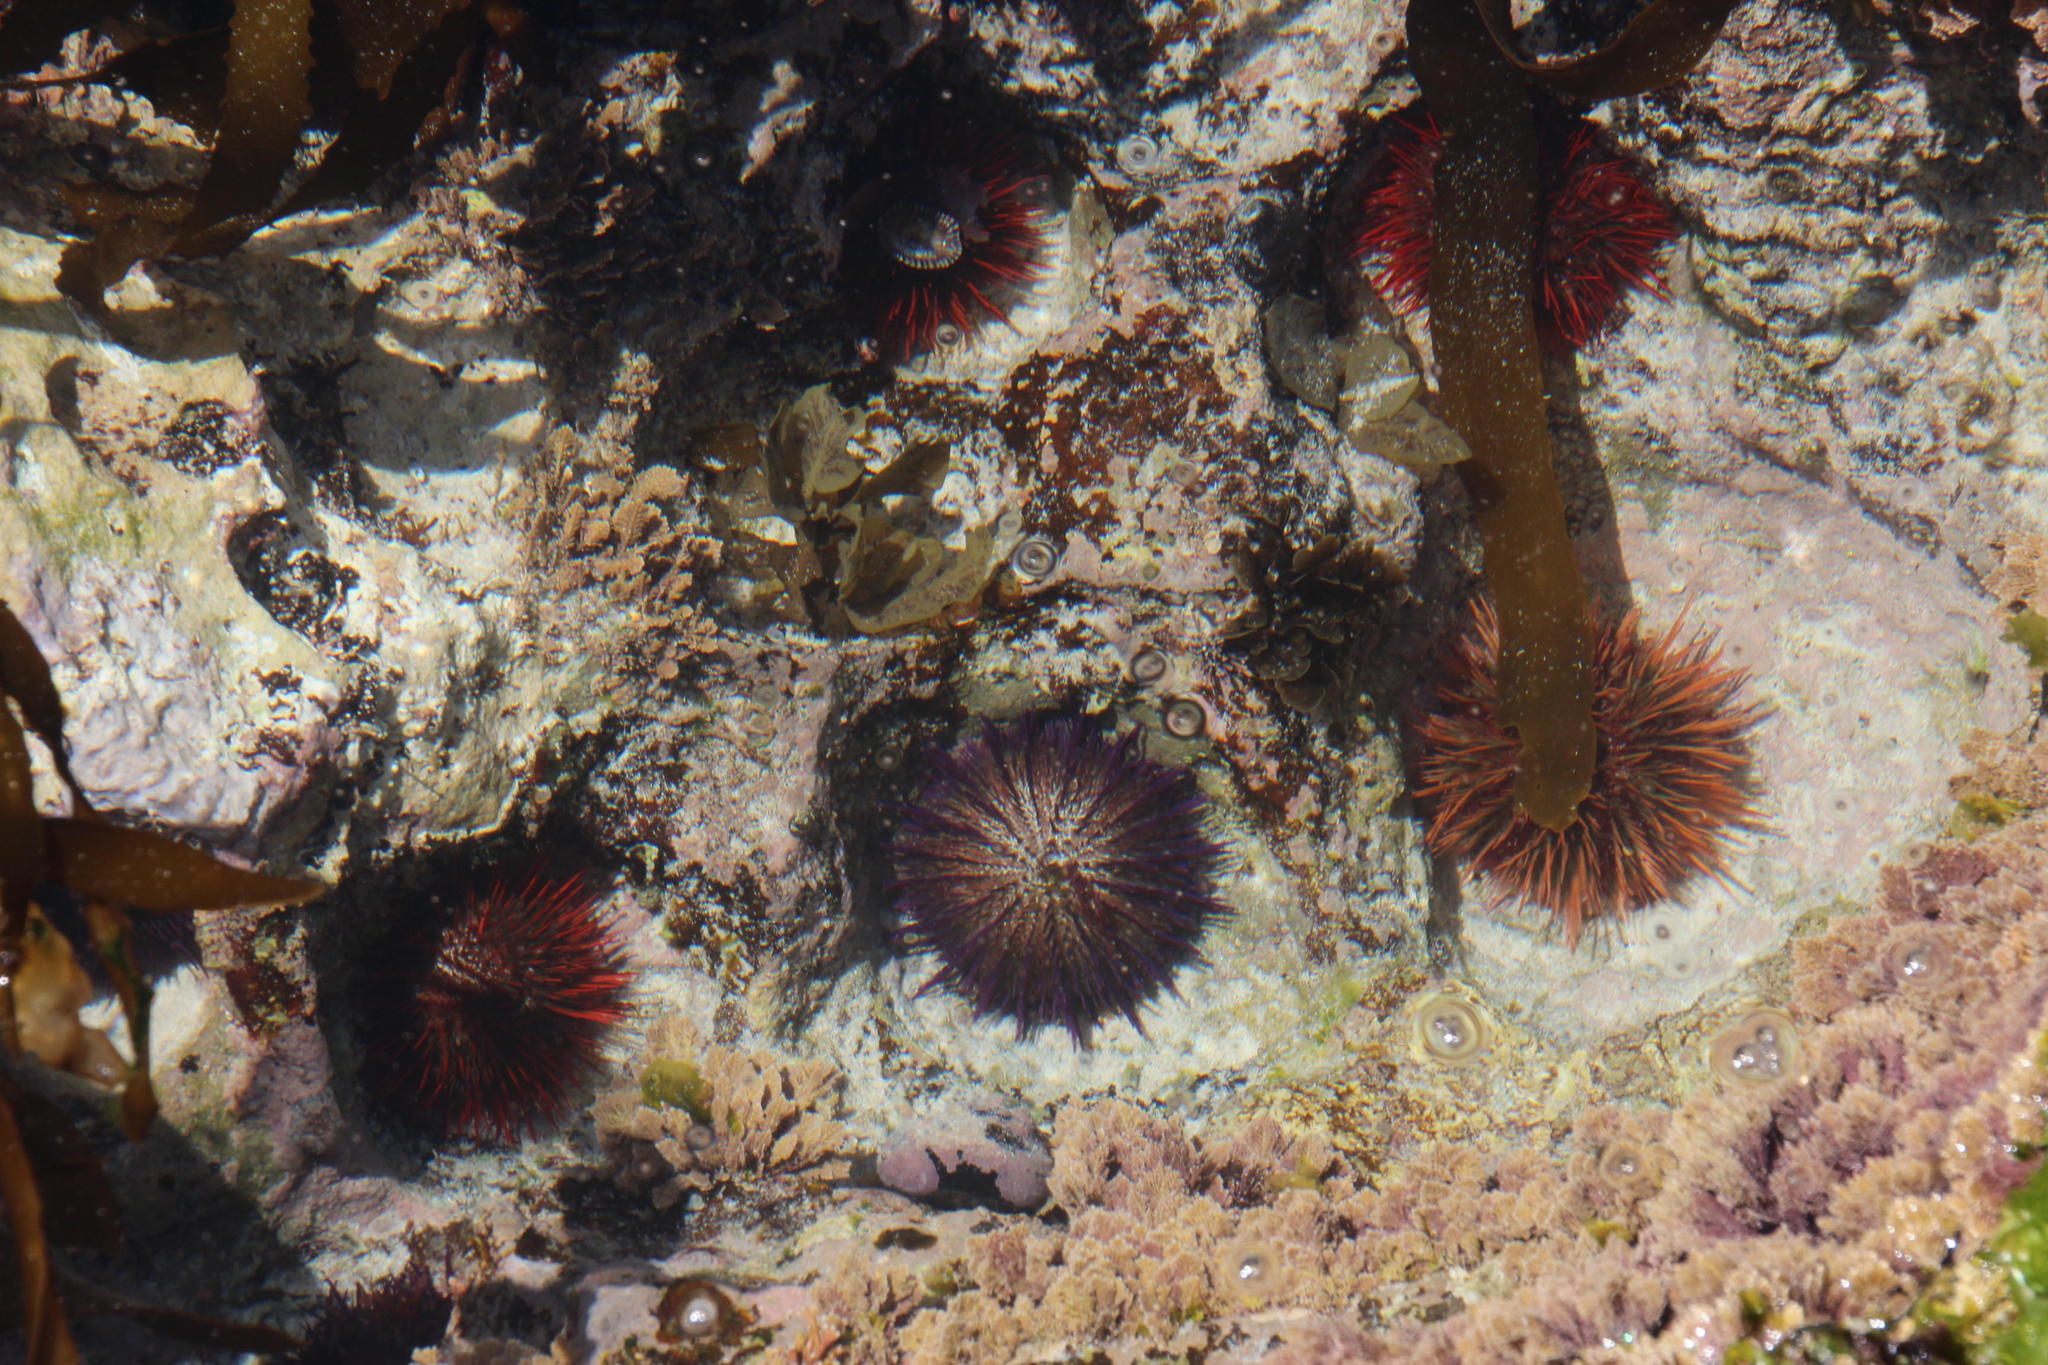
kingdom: Animalia
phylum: Echinodermata
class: Echinoidea
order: Camarodonta
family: Parechinidae
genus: Parechinus
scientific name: Parechinus angulosus
